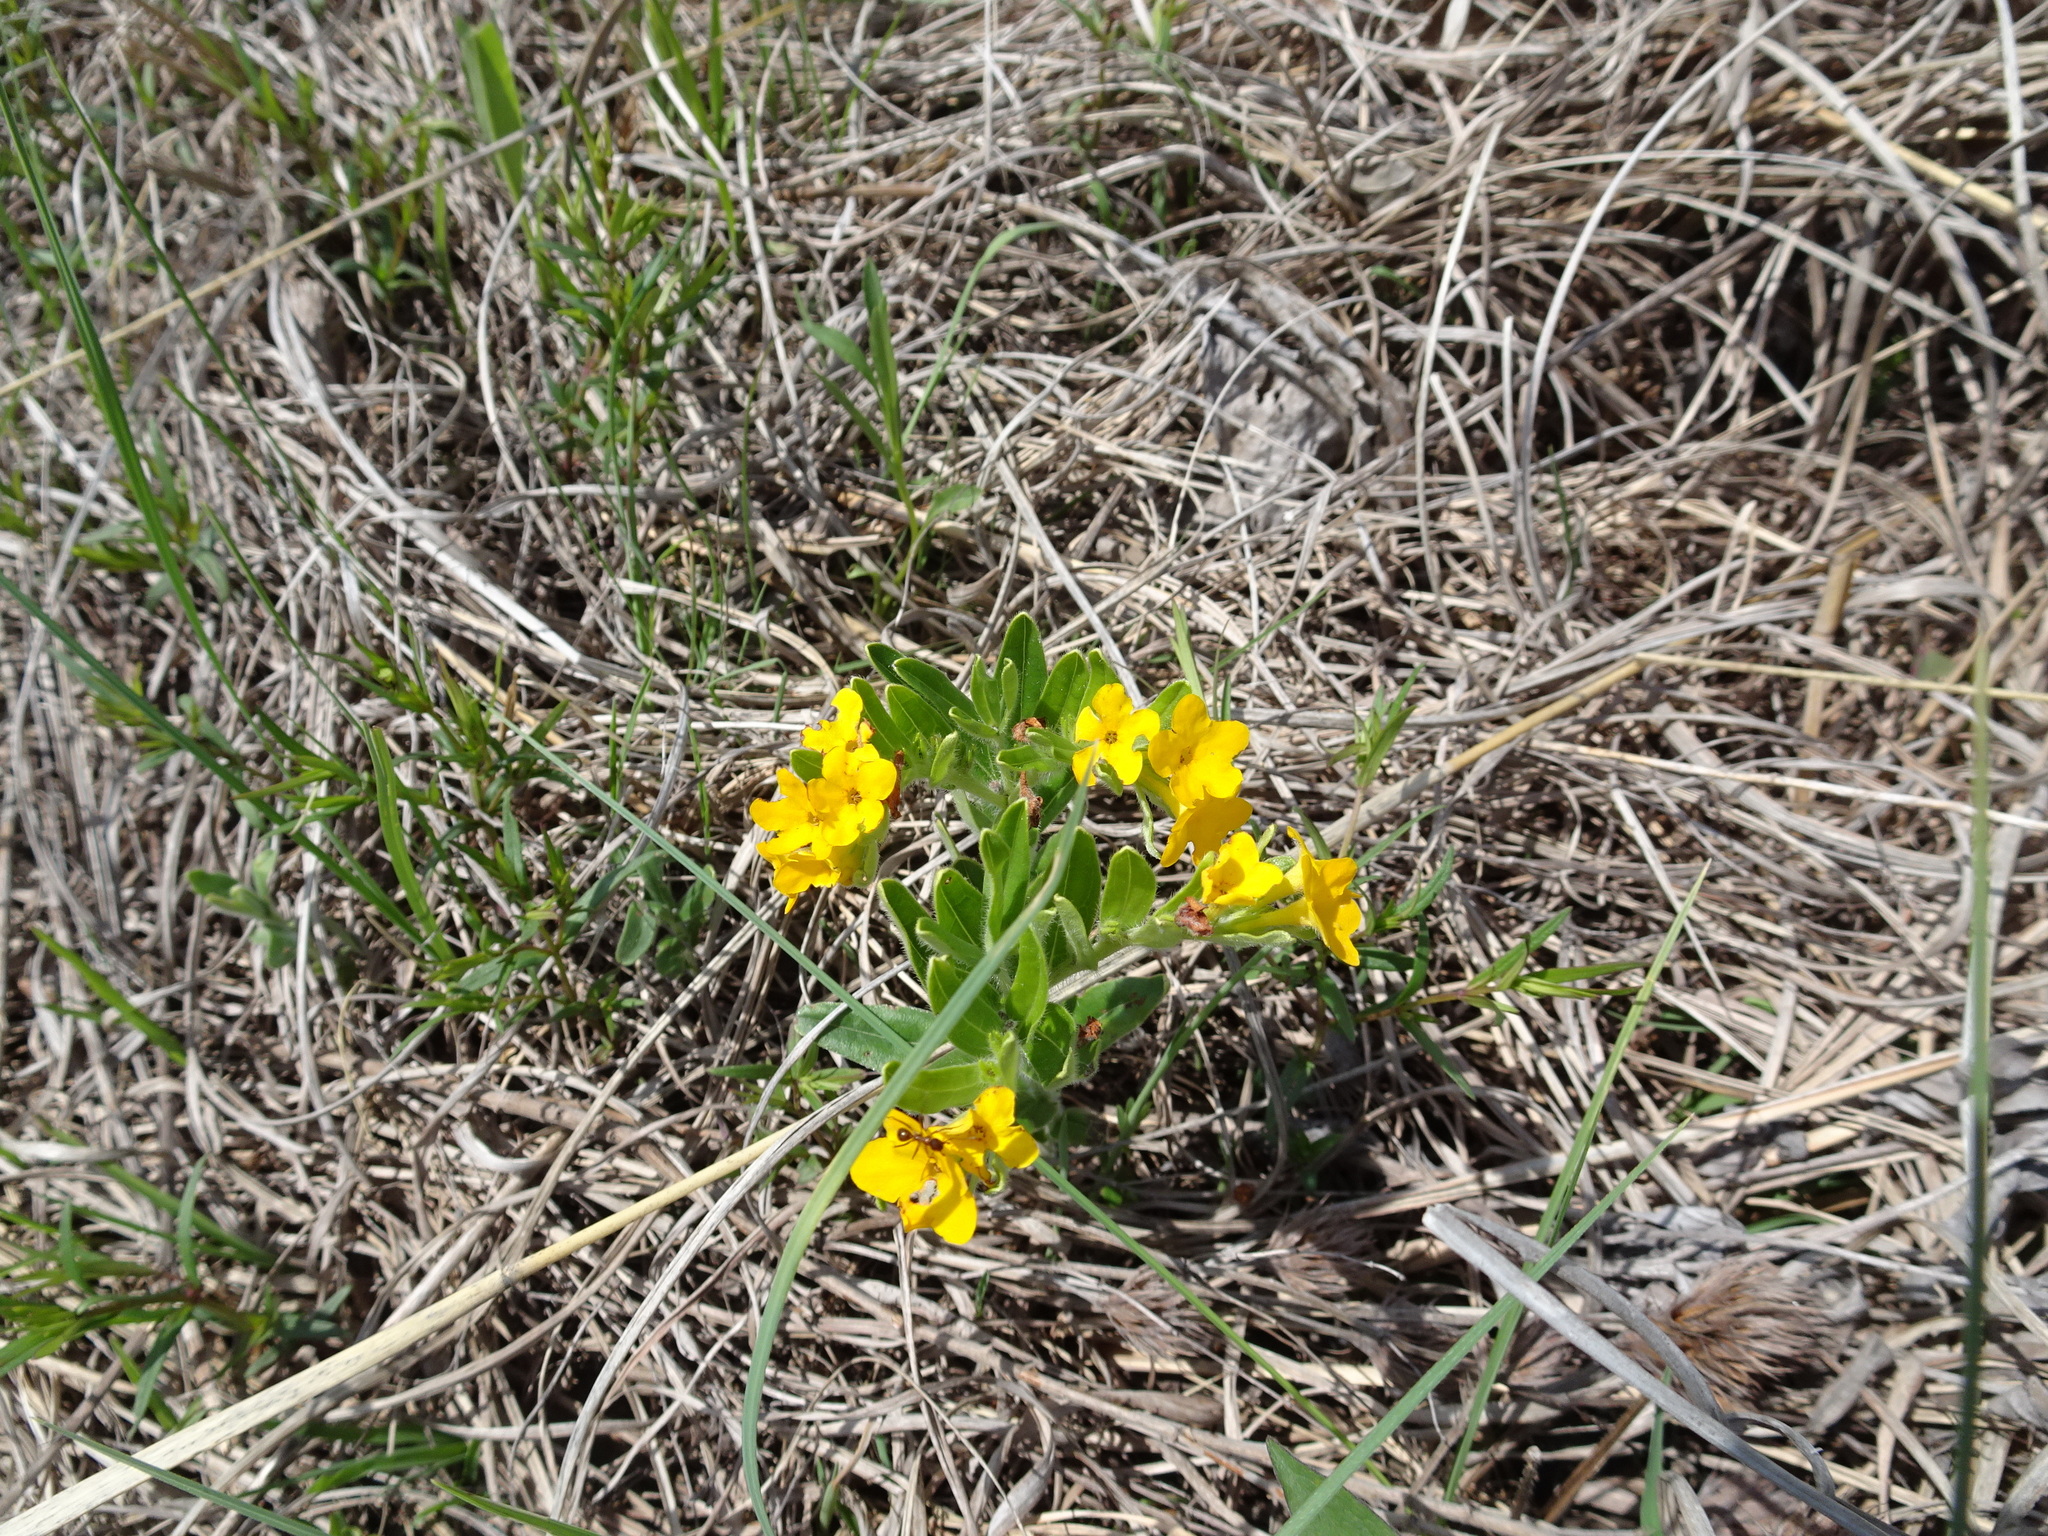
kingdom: Plantae
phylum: Tracheophyta
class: Magnoliopsida
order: Boraginales
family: Boraginaceae
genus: Lithospermum
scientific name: Lithospermum canescens
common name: Hoary puccoon
